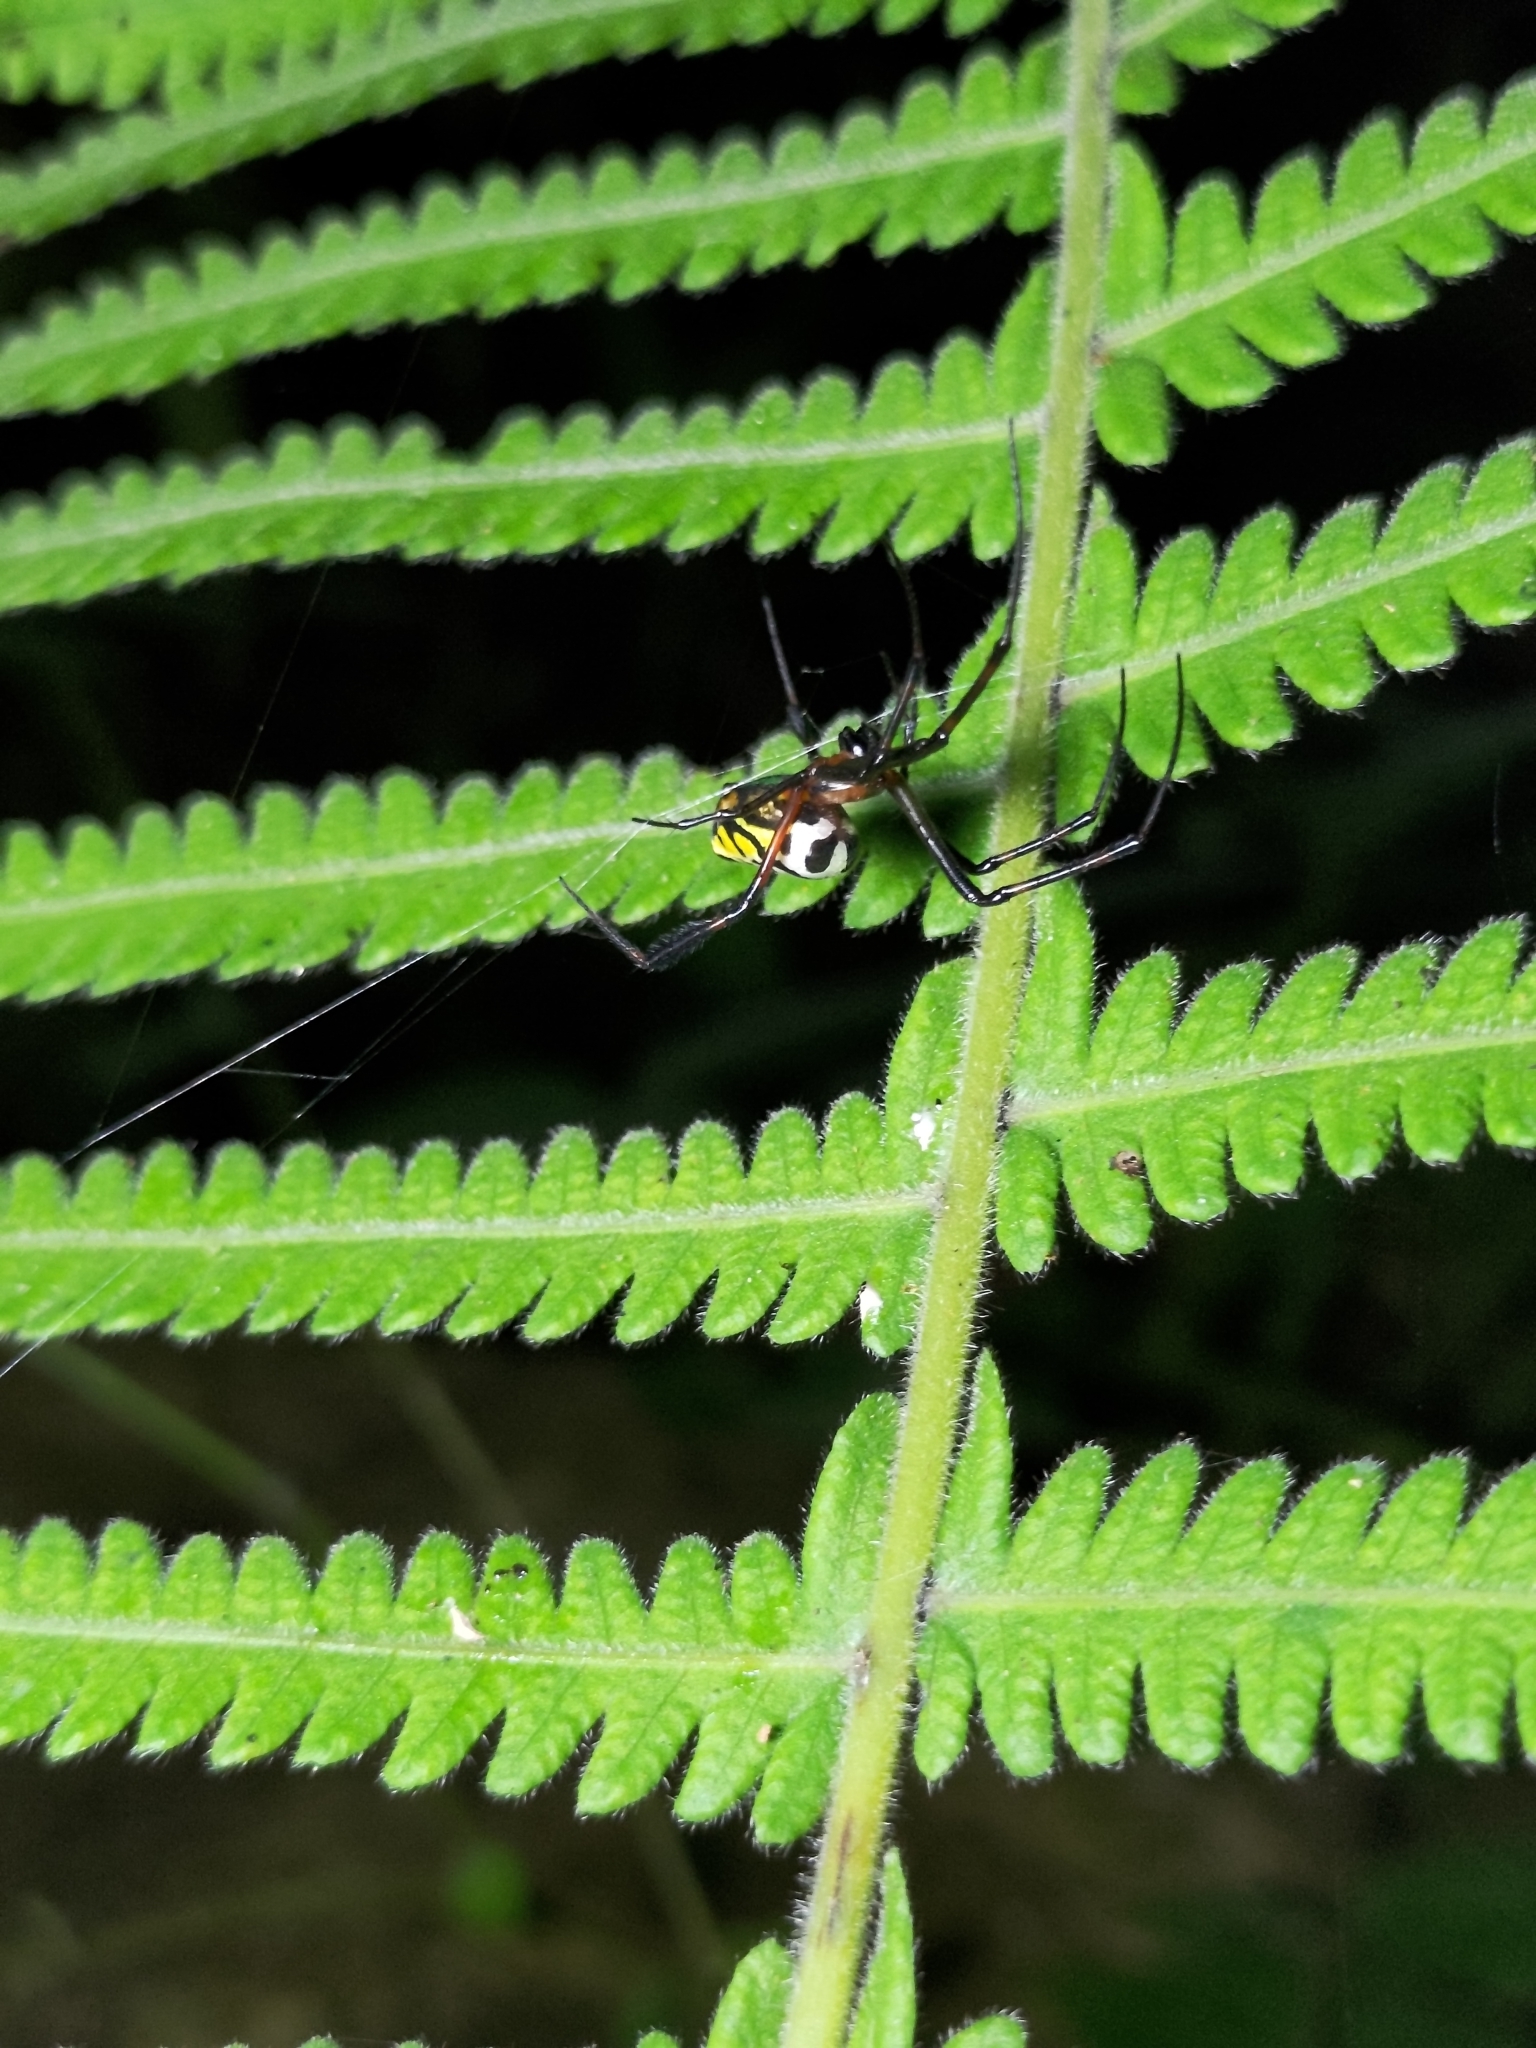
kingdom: Animalia
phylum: Arthropoda
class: Arachnida
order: Araneae
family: Tetragnathidae
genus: Leucauge
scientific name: Leucauge tessellata
